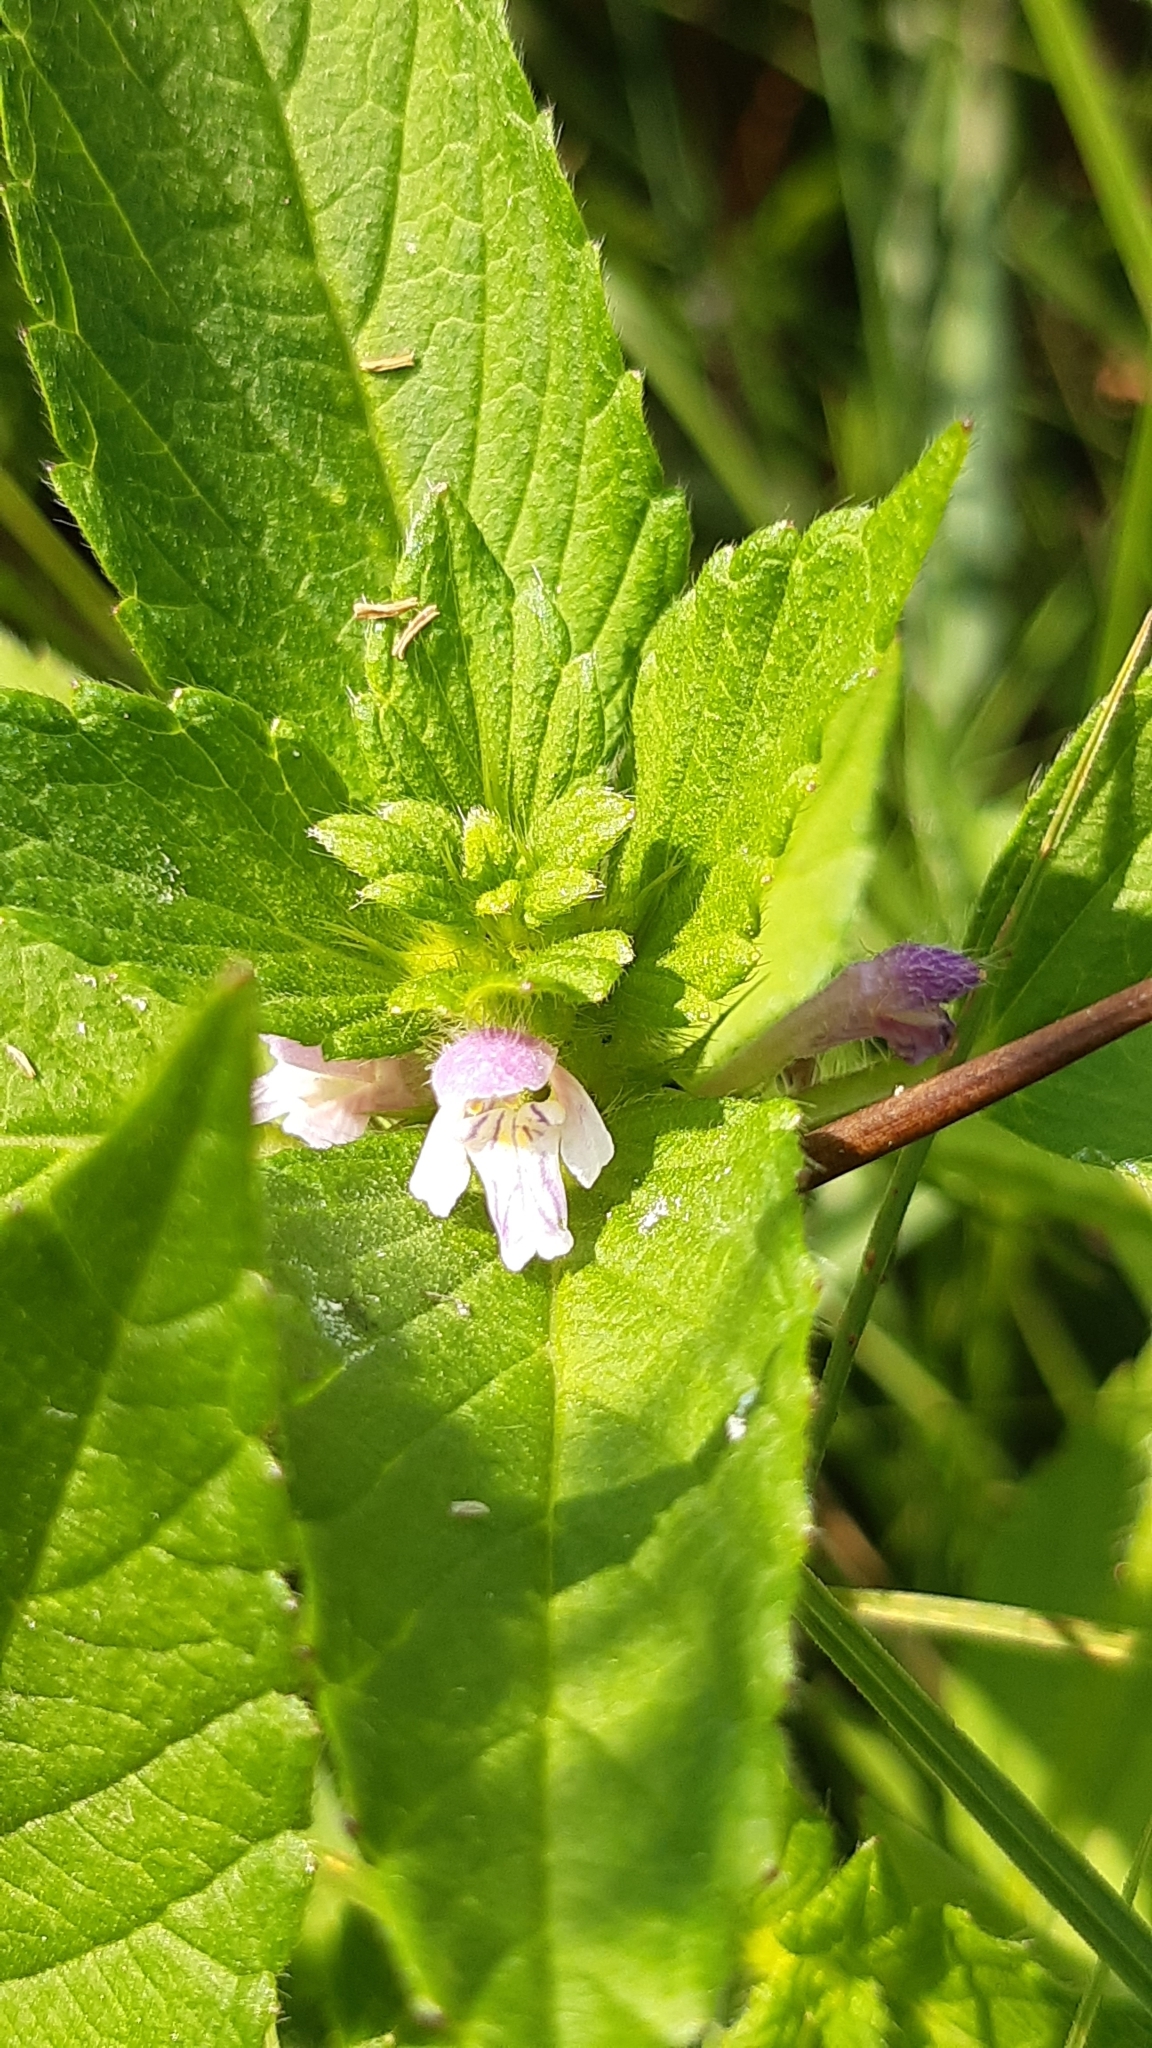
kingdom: Plantae
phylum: Tracheophyta
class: Magnoliopsida
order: Lamiales
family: Lamiaceae
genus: Galeopsis
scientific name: Galeopsis bifida
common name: Bifid hemp-nettle
